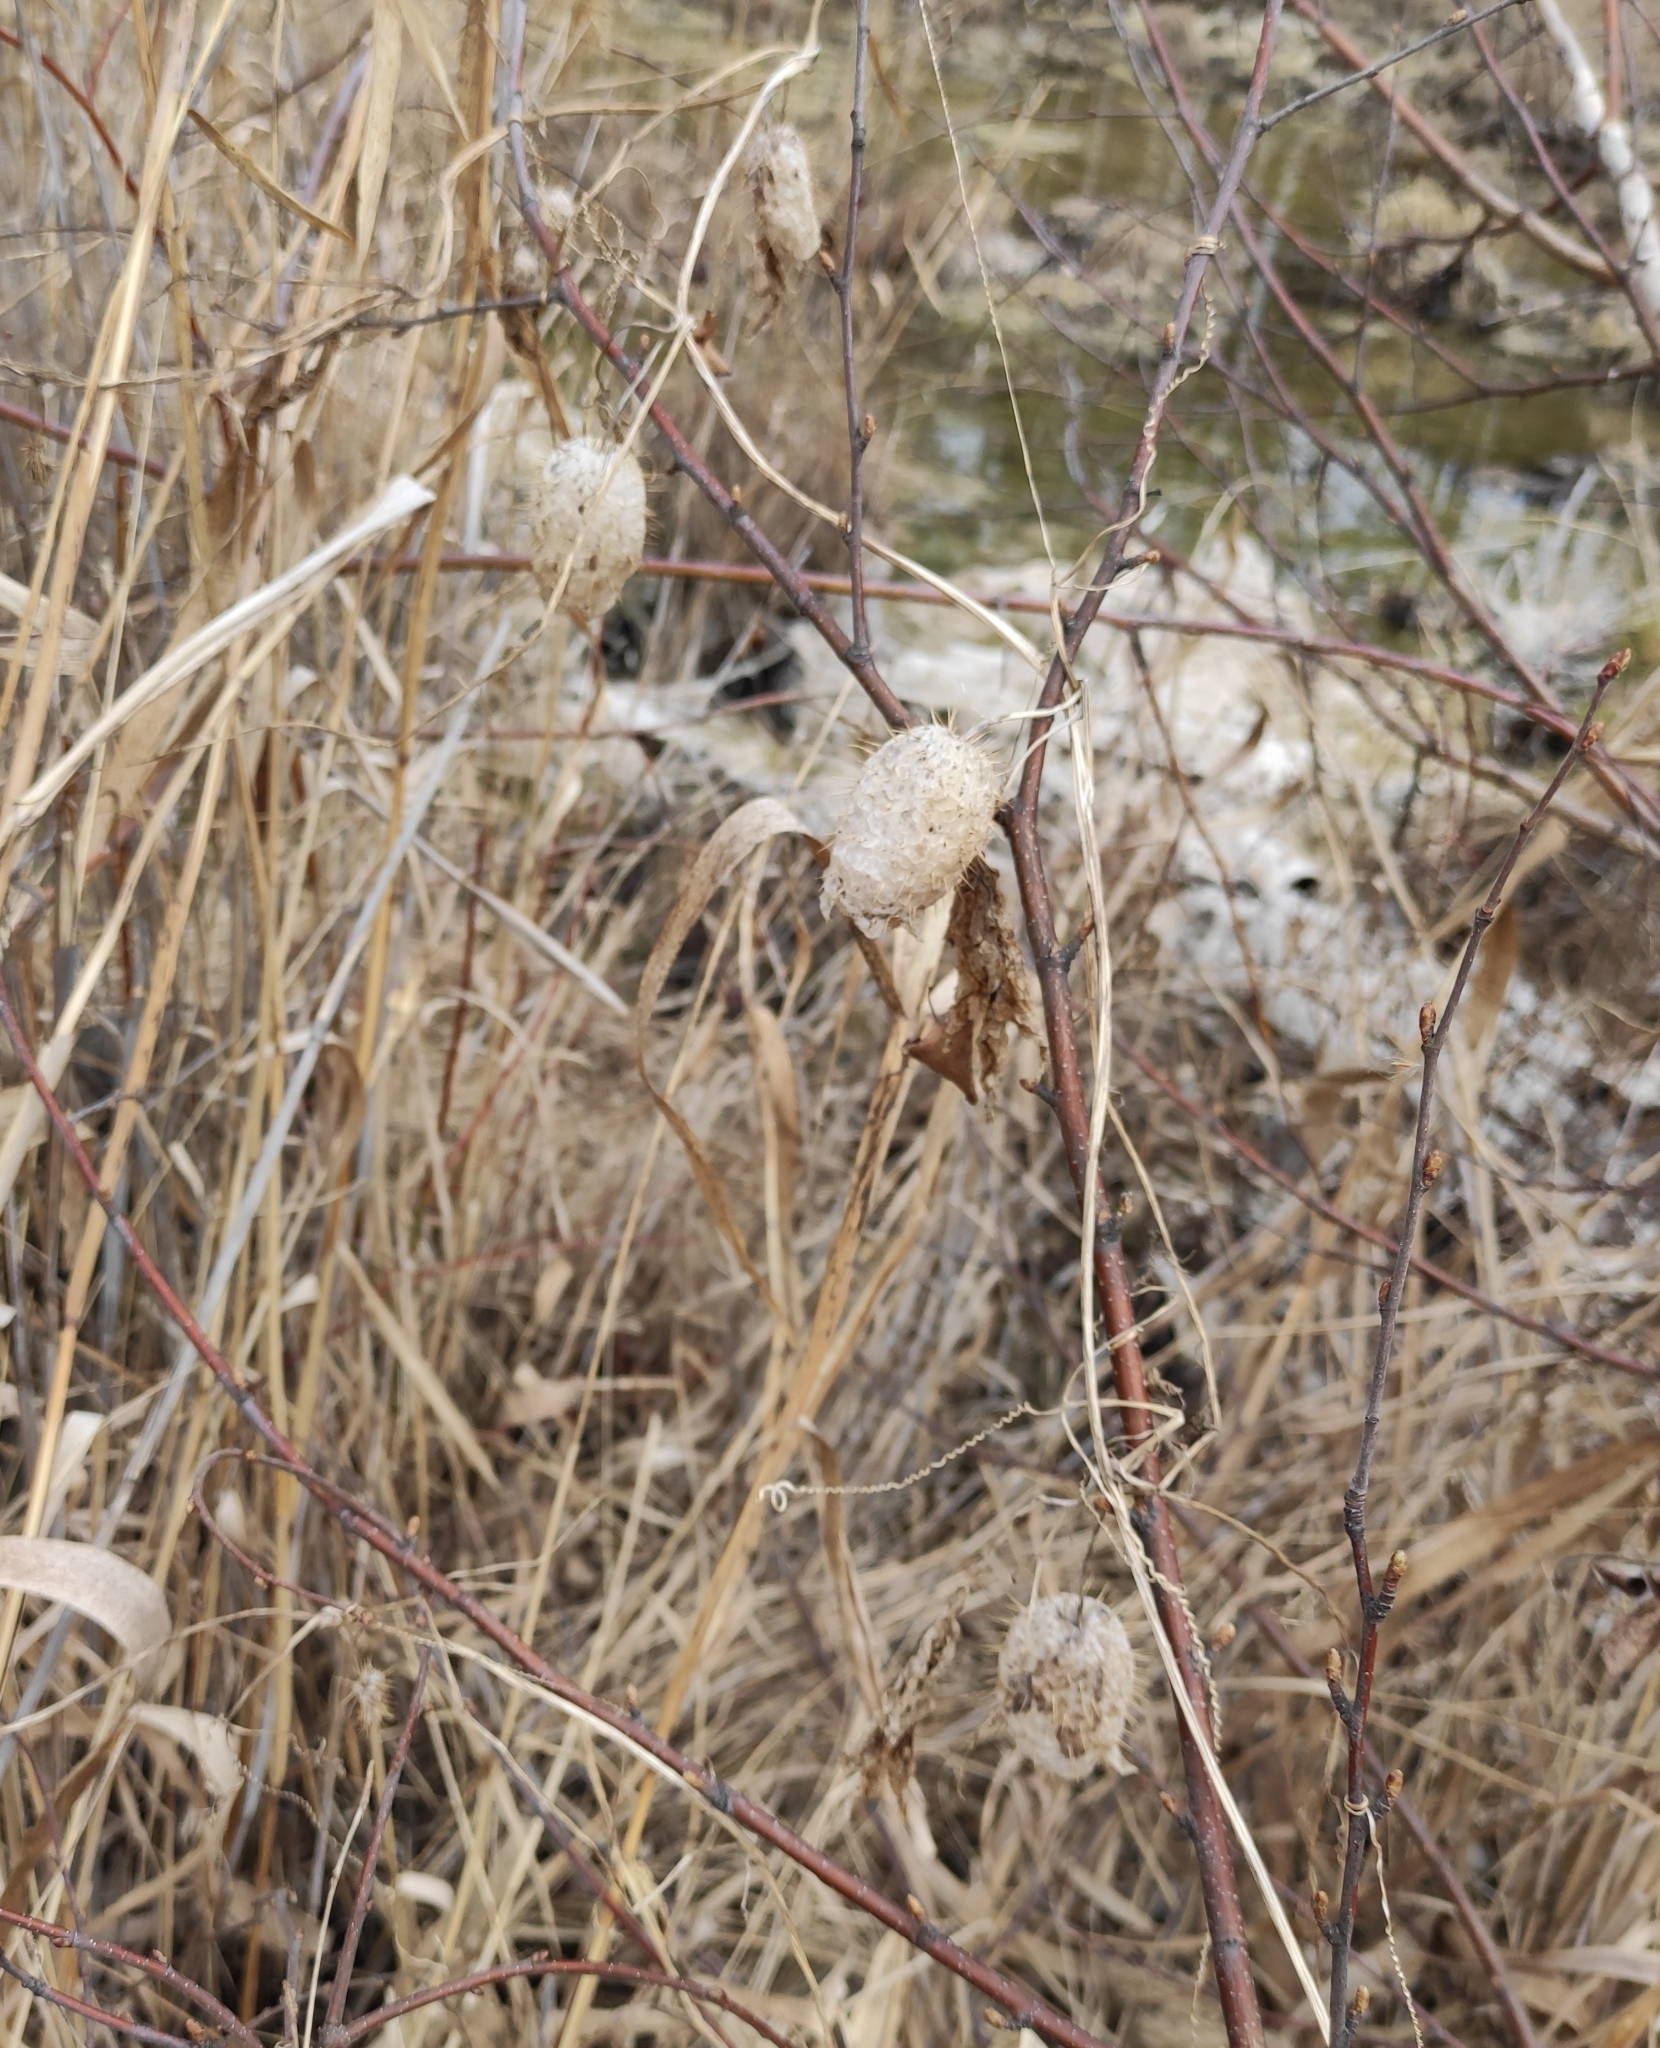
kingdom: Plantae
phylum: Tracheophyta
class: Magnoliopsida
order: Cucurbitales
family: Cucurbitaceae
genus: Echinocystis
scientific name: Echinocystis lobata
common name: Wild cucumber
